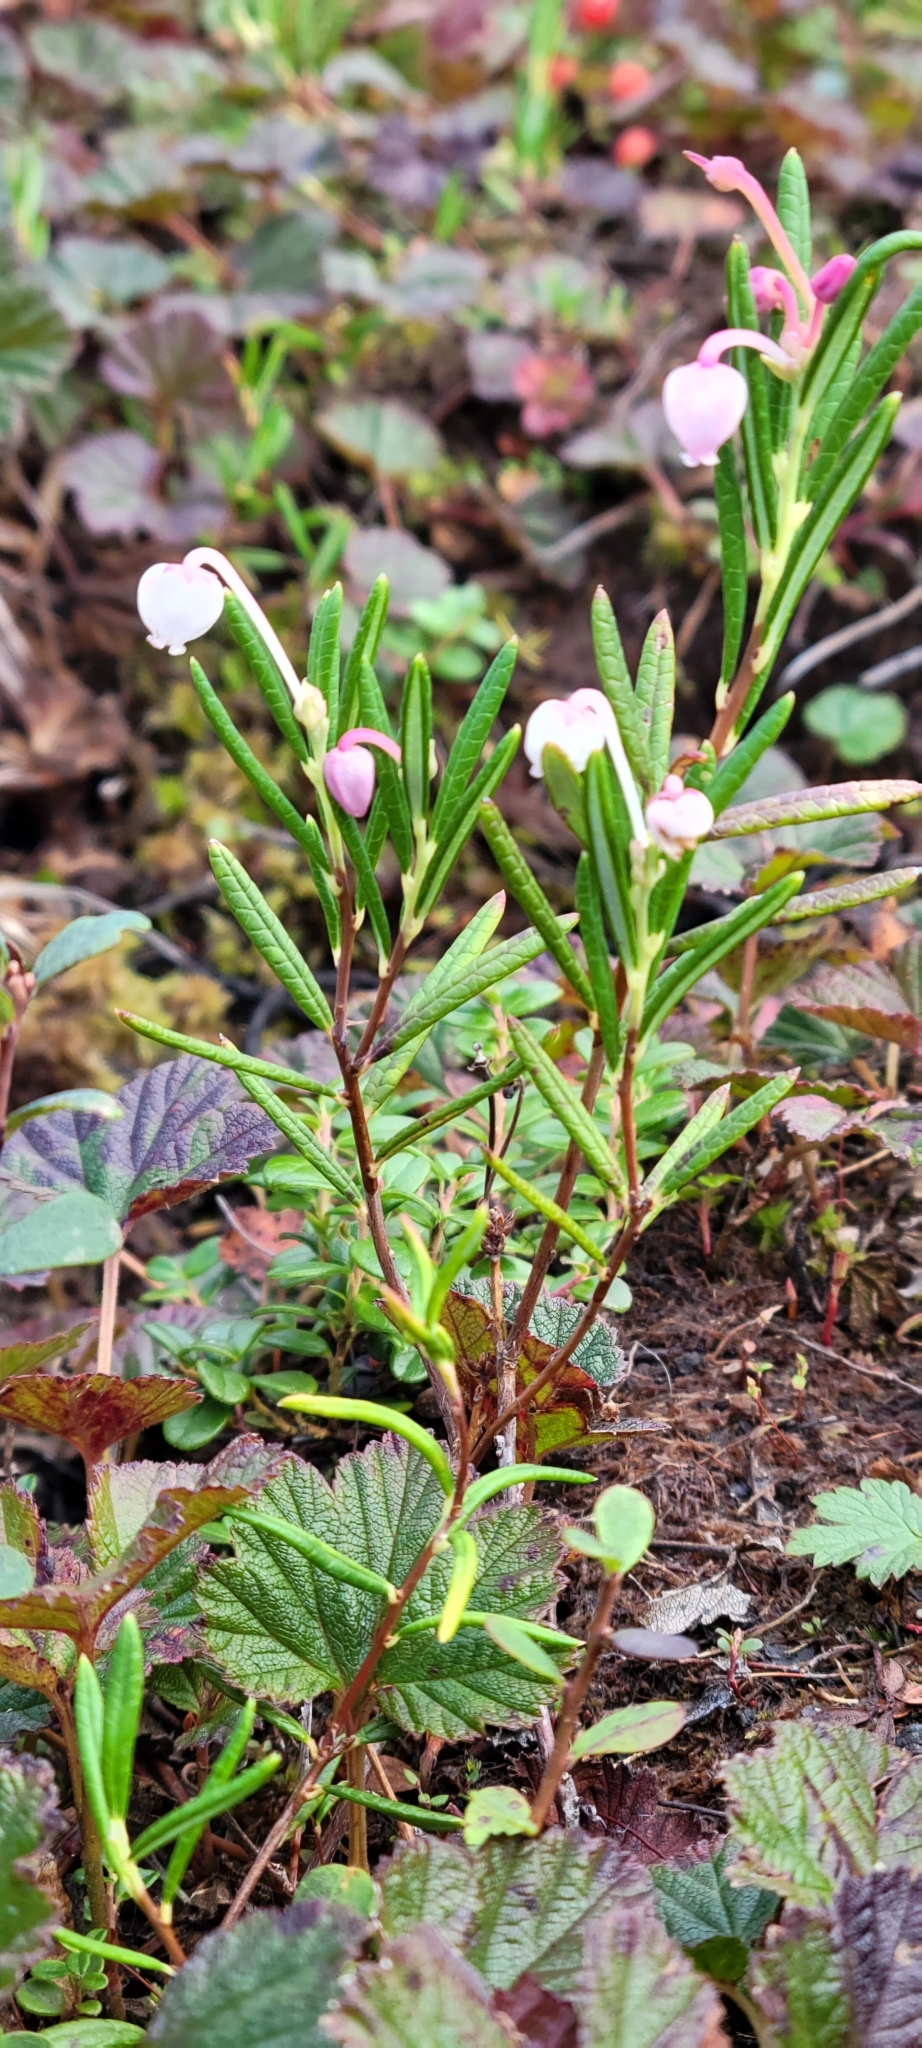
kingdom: Plantae
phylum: Tracheophyta
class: Magnoliopsida
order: Ericales
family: Ericaceae
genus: Andromeda
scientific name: Andromeda polifolia
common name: Bog-rosemary
